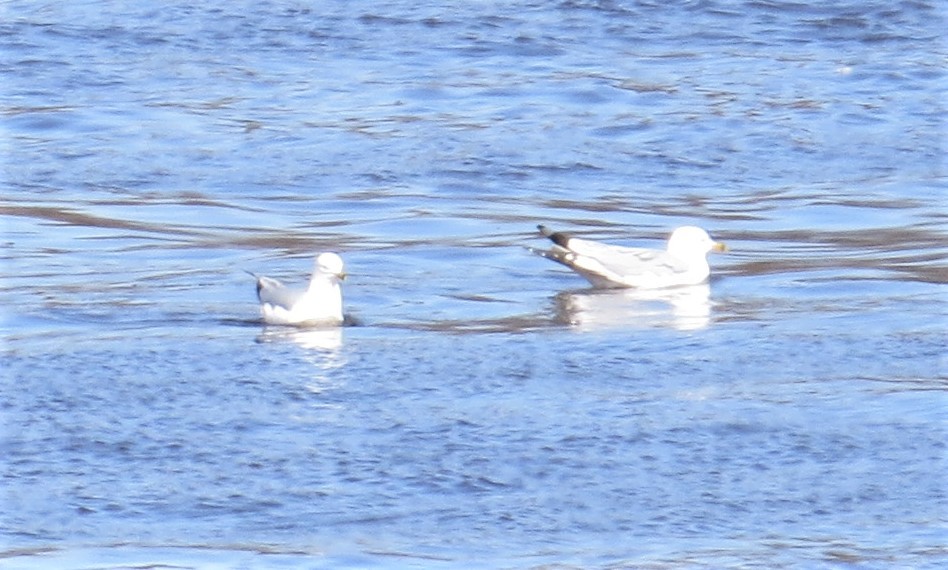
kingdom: Animalia
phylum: Chordata
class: Aves
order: Charadriiformes
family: Laridae
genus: Larus
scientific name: Larus delawarensis
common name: Ring-billed gull
